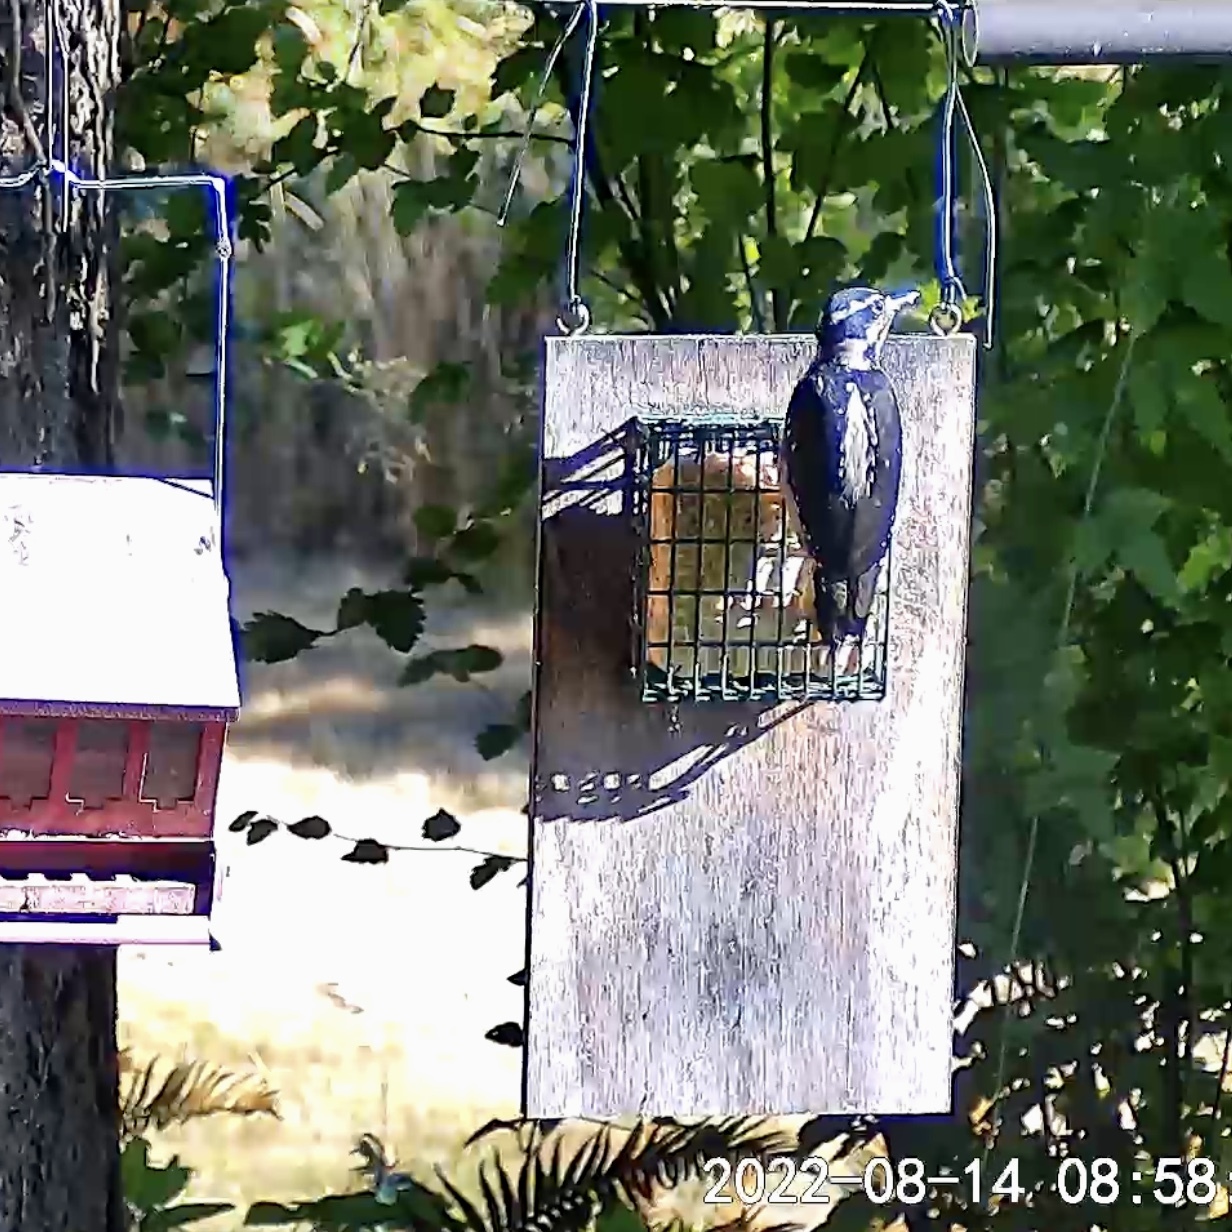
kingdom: Animalia
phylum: Chordata
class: Aves
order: Piciformes
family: Picidae
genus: Leuconotopicus
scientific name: Leuconotopicus villosus
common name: Hairy woodpecker
